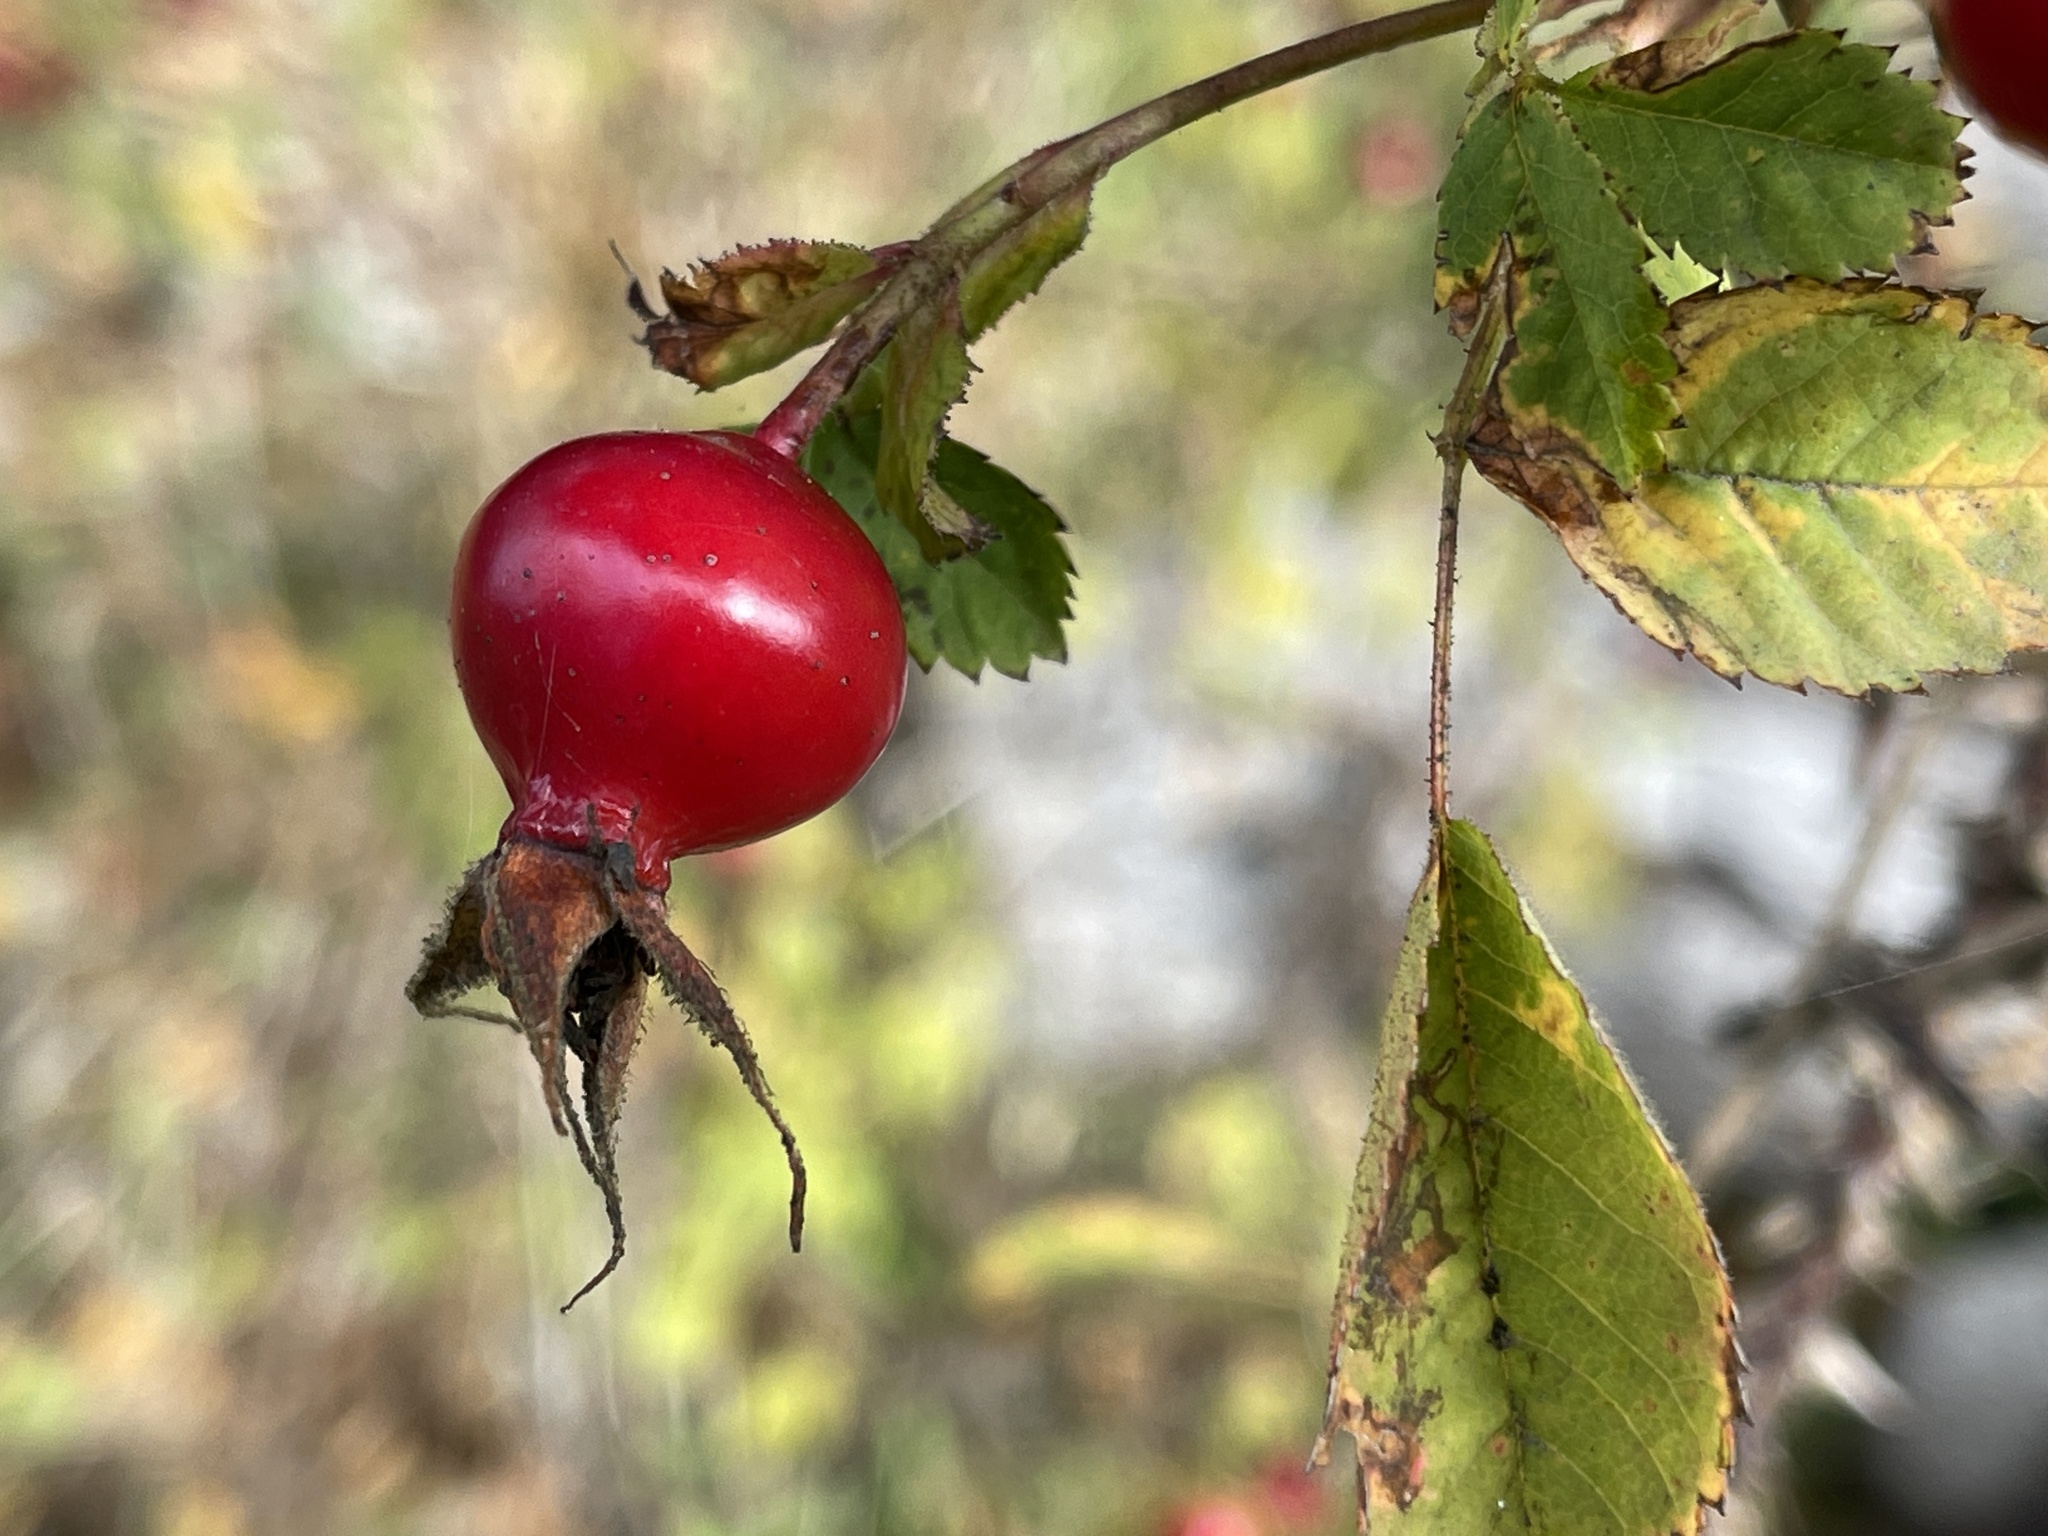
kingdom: Plantae
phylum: Tracheophyta
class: Magnoliopsida
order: Rosales
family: Rosaceae
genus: Rosa
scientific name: Rosa californica
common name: California rose
